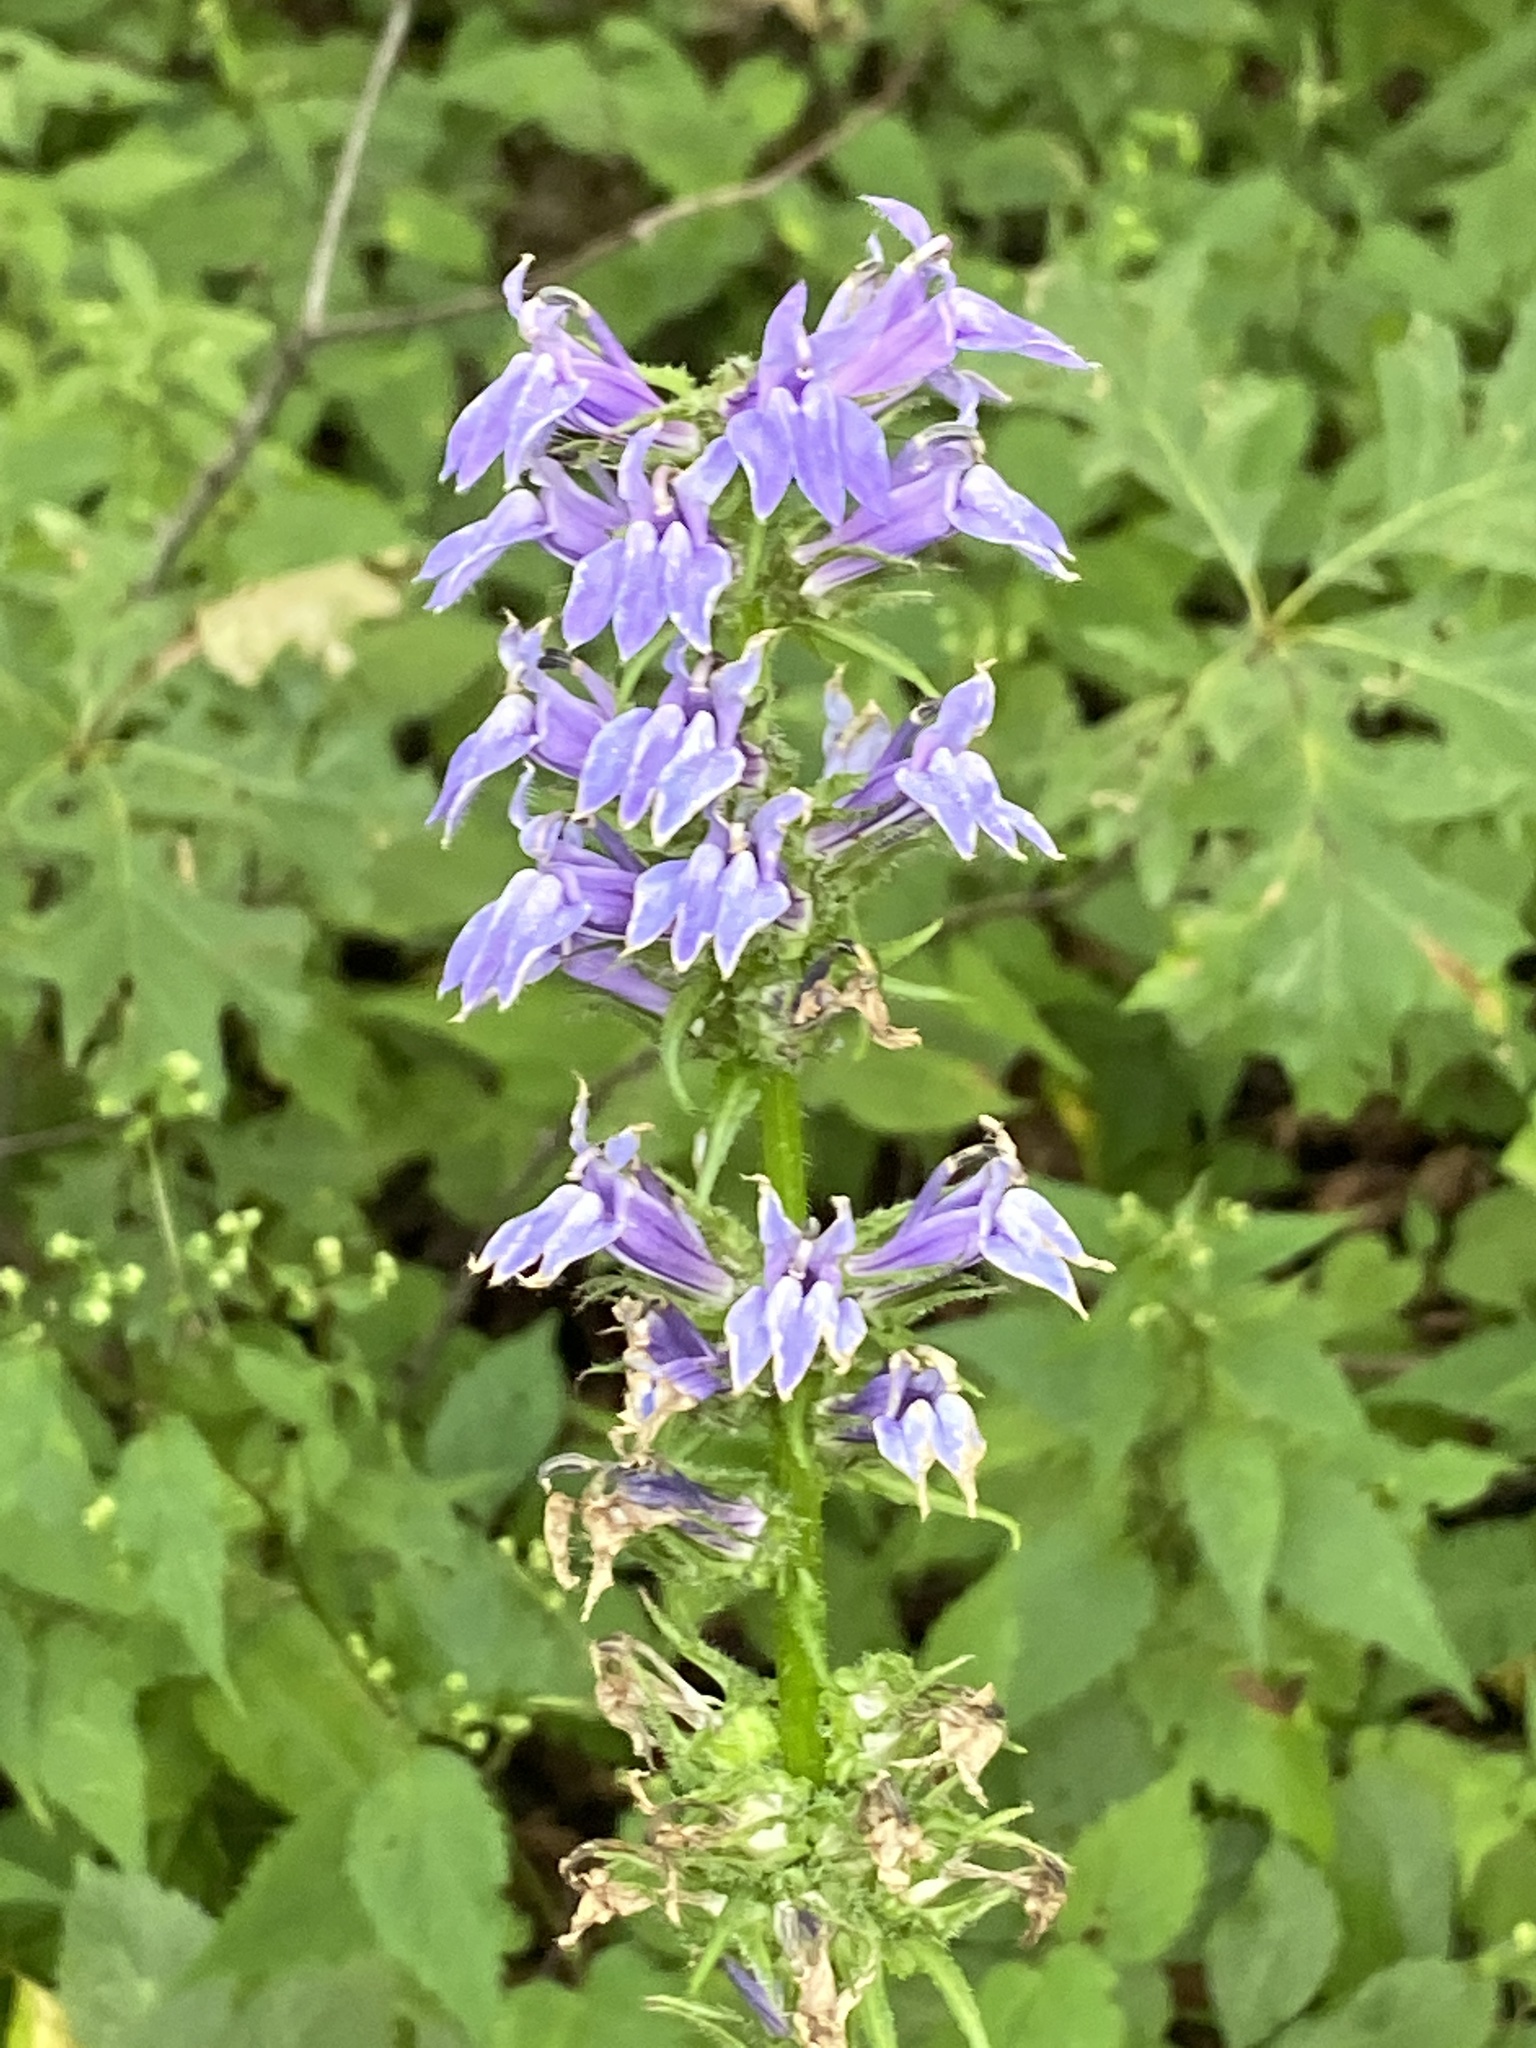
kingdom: Plantae
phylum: Tracheophyta
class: Magnoliopsida
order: Asterales
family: Campanulaceae
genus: Lobelia
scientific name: Lobelia siphilitica
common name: Great lobelia
